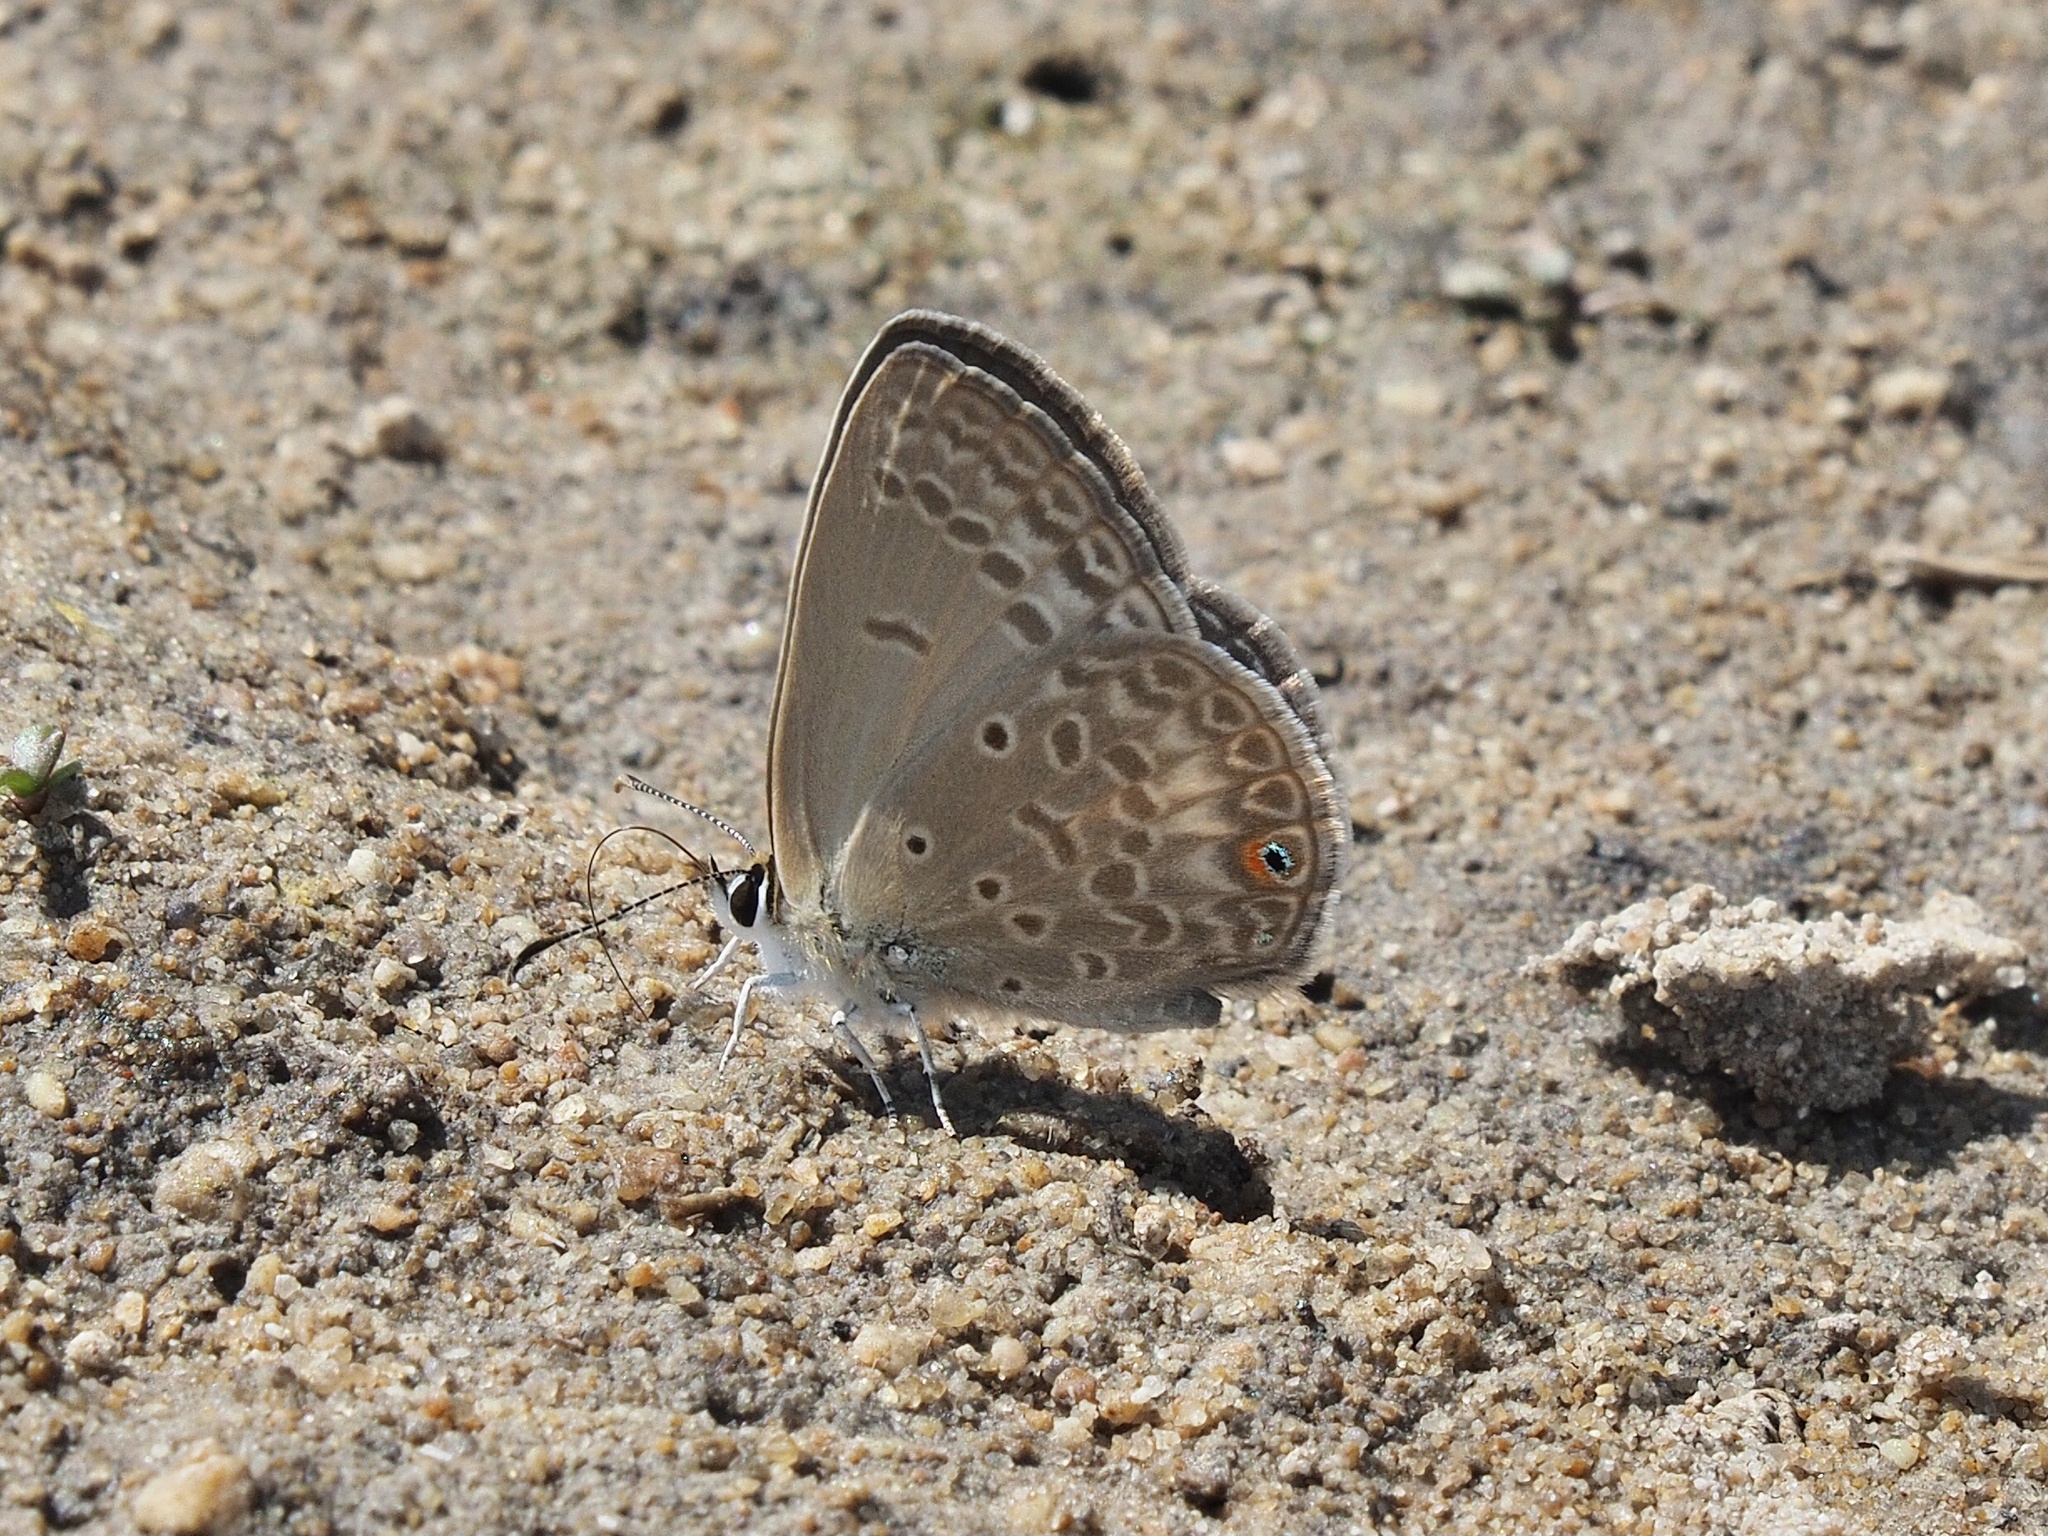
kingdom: Animalia
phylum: Arthropoda
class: Insecta
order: Lepidoptera
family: Lycaenidae
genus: Euchrysops
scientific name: Euchrysops malathana
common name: Common smoky blue
